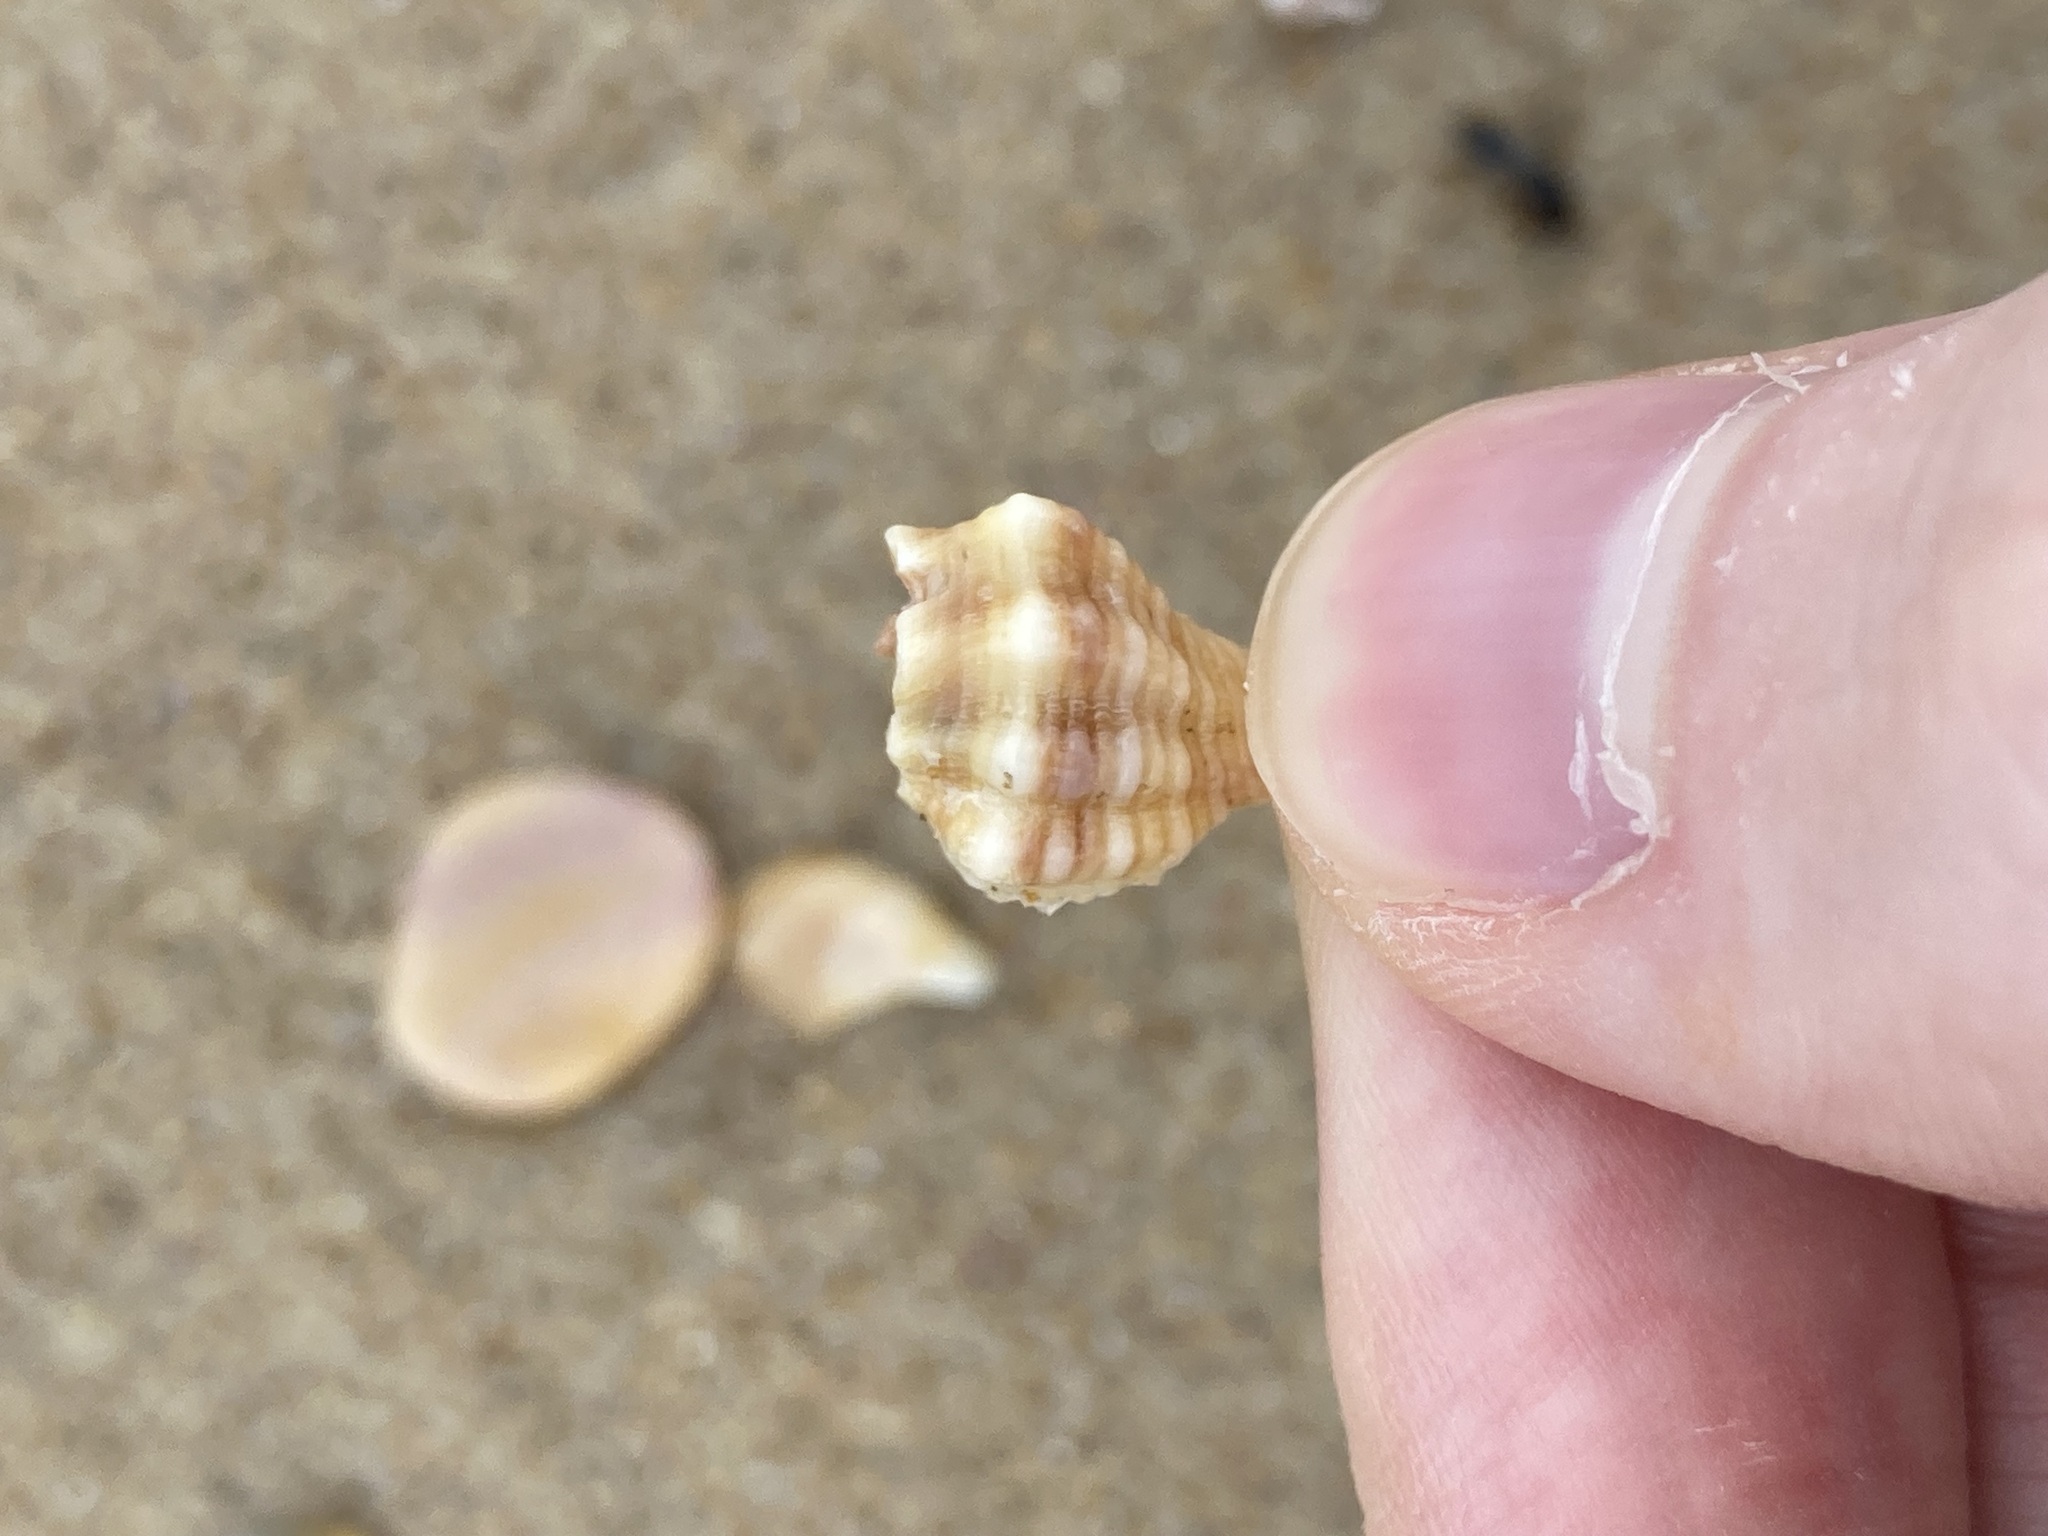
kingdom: Animalia
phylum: Mollusca
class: Gastropoda
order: Neogastropoda
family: Muricidae
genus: Bedeva
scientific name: Bedeva paivae
